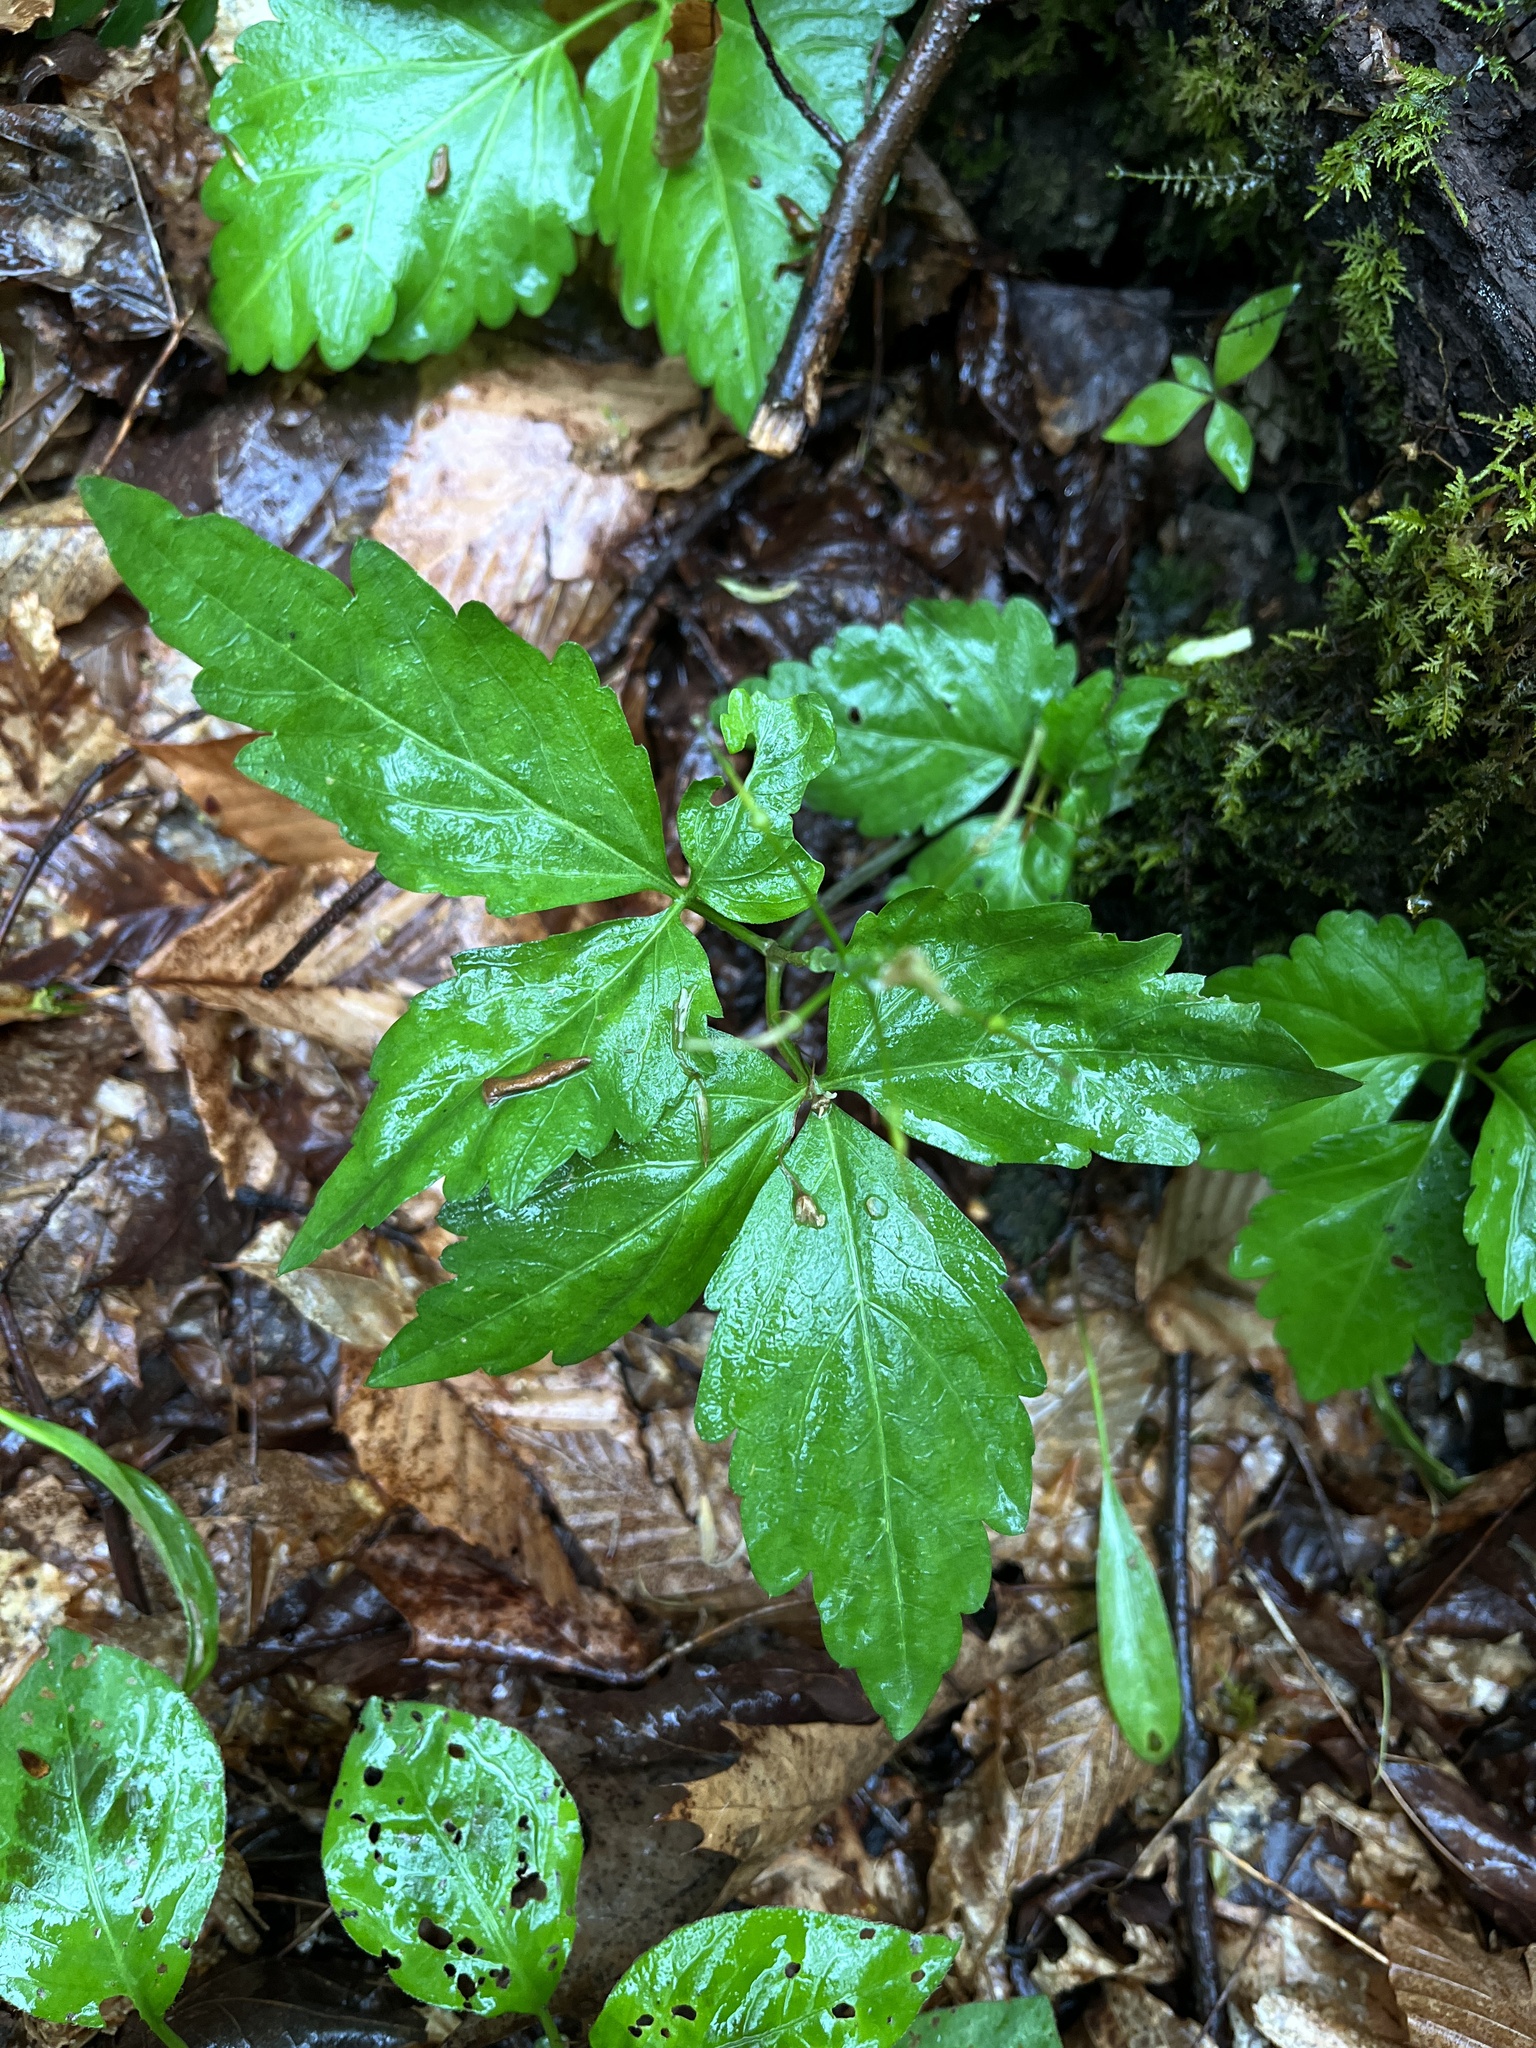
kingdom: Plantae
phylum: Tracheophyta
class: Magnoliopsida
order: Brassicales
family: Brassicaceae
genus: Cardamine
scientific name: Cardamine diphylla
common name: Broad-leaved toothwort
